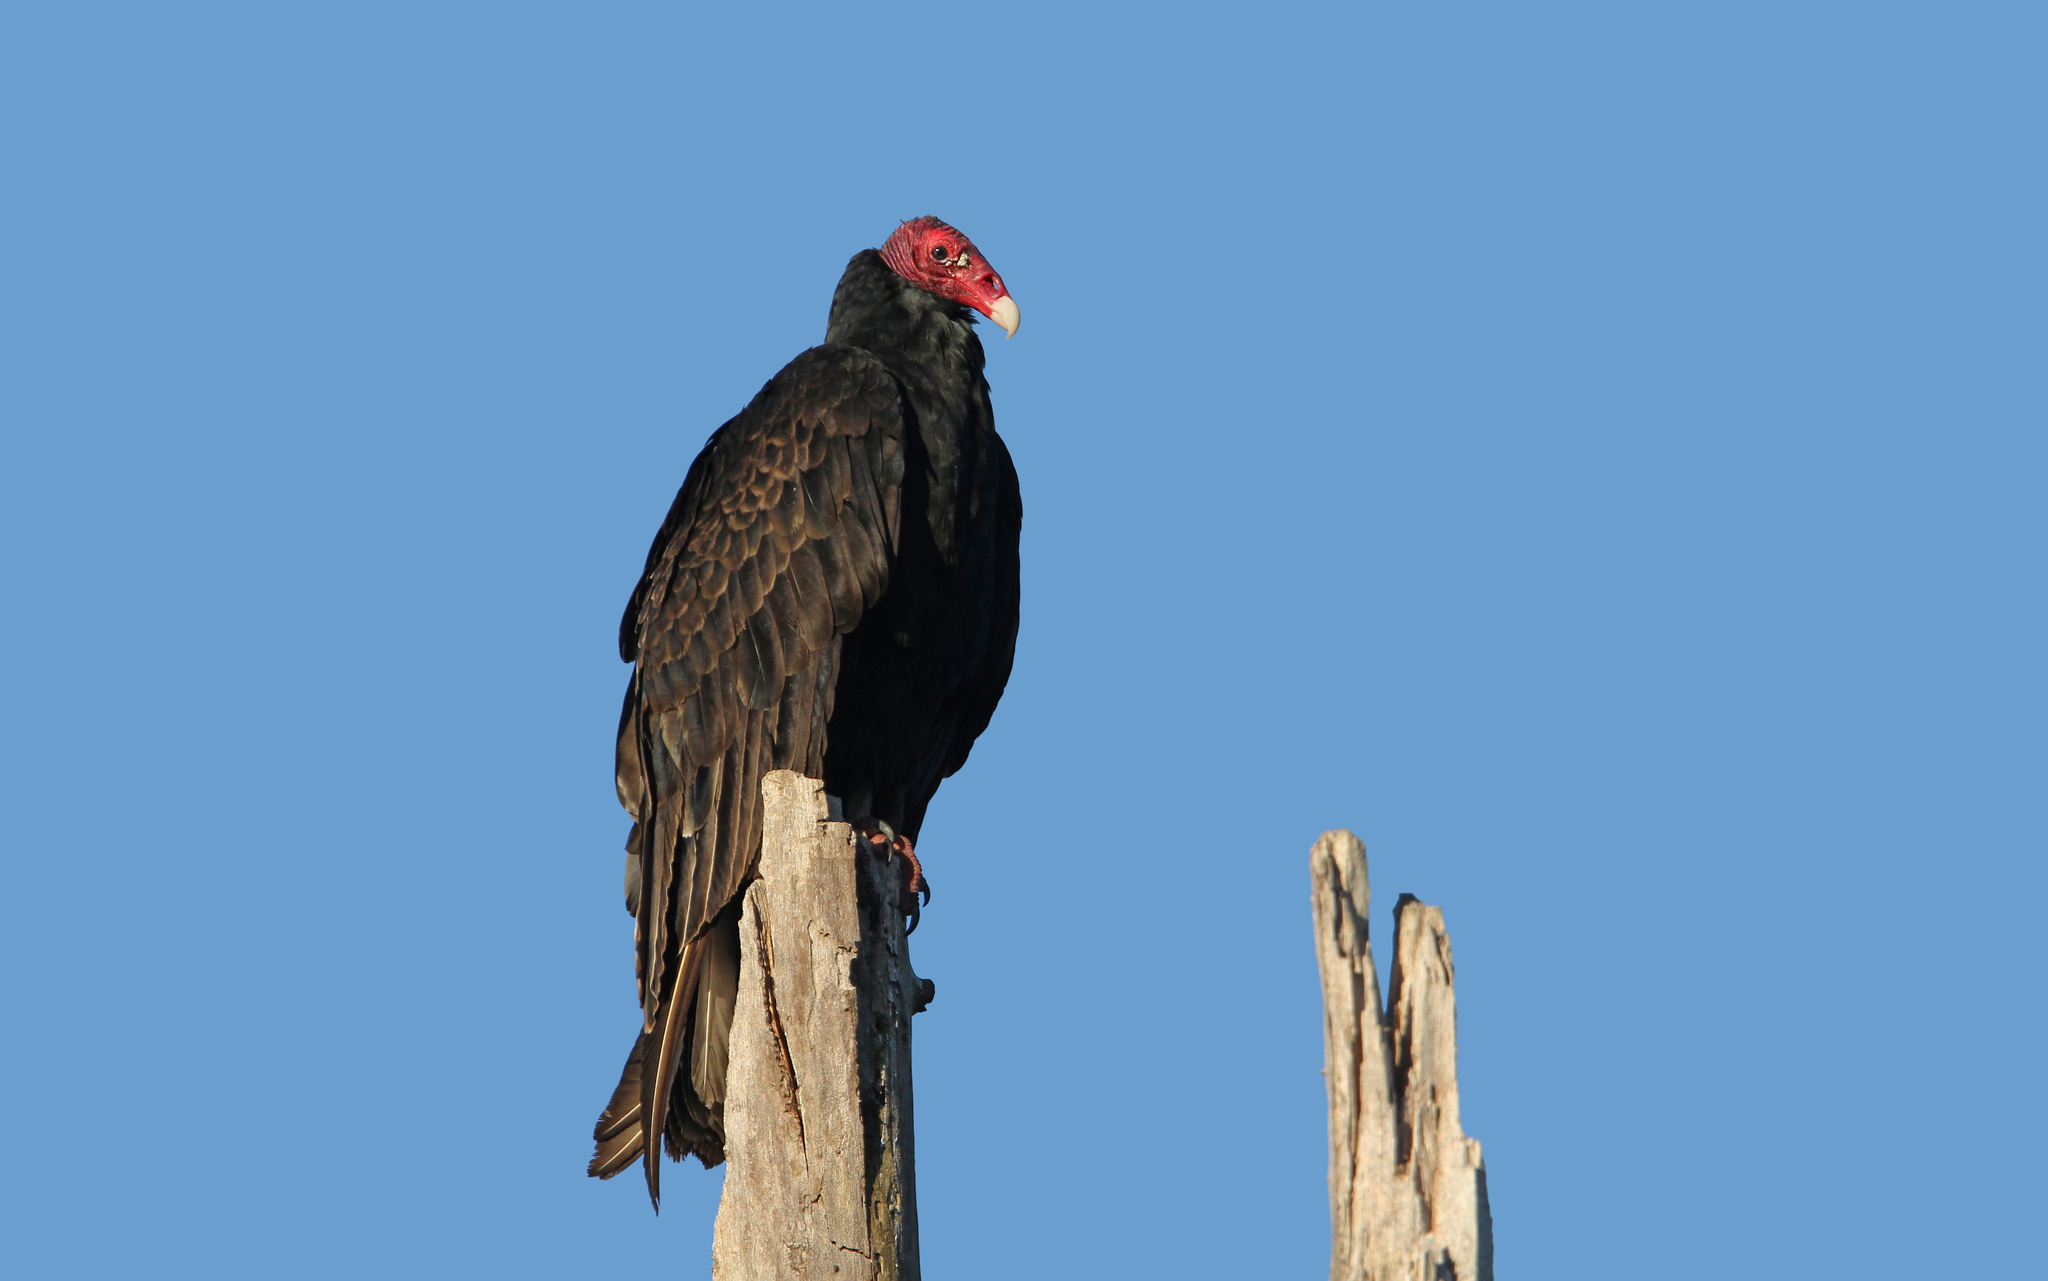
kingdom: Animalia
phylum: Chordata
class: Aves
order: Accipitriformes
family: Cathartidae
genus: Cathartes
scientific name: Cathartes aura
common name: Turkey vulture
